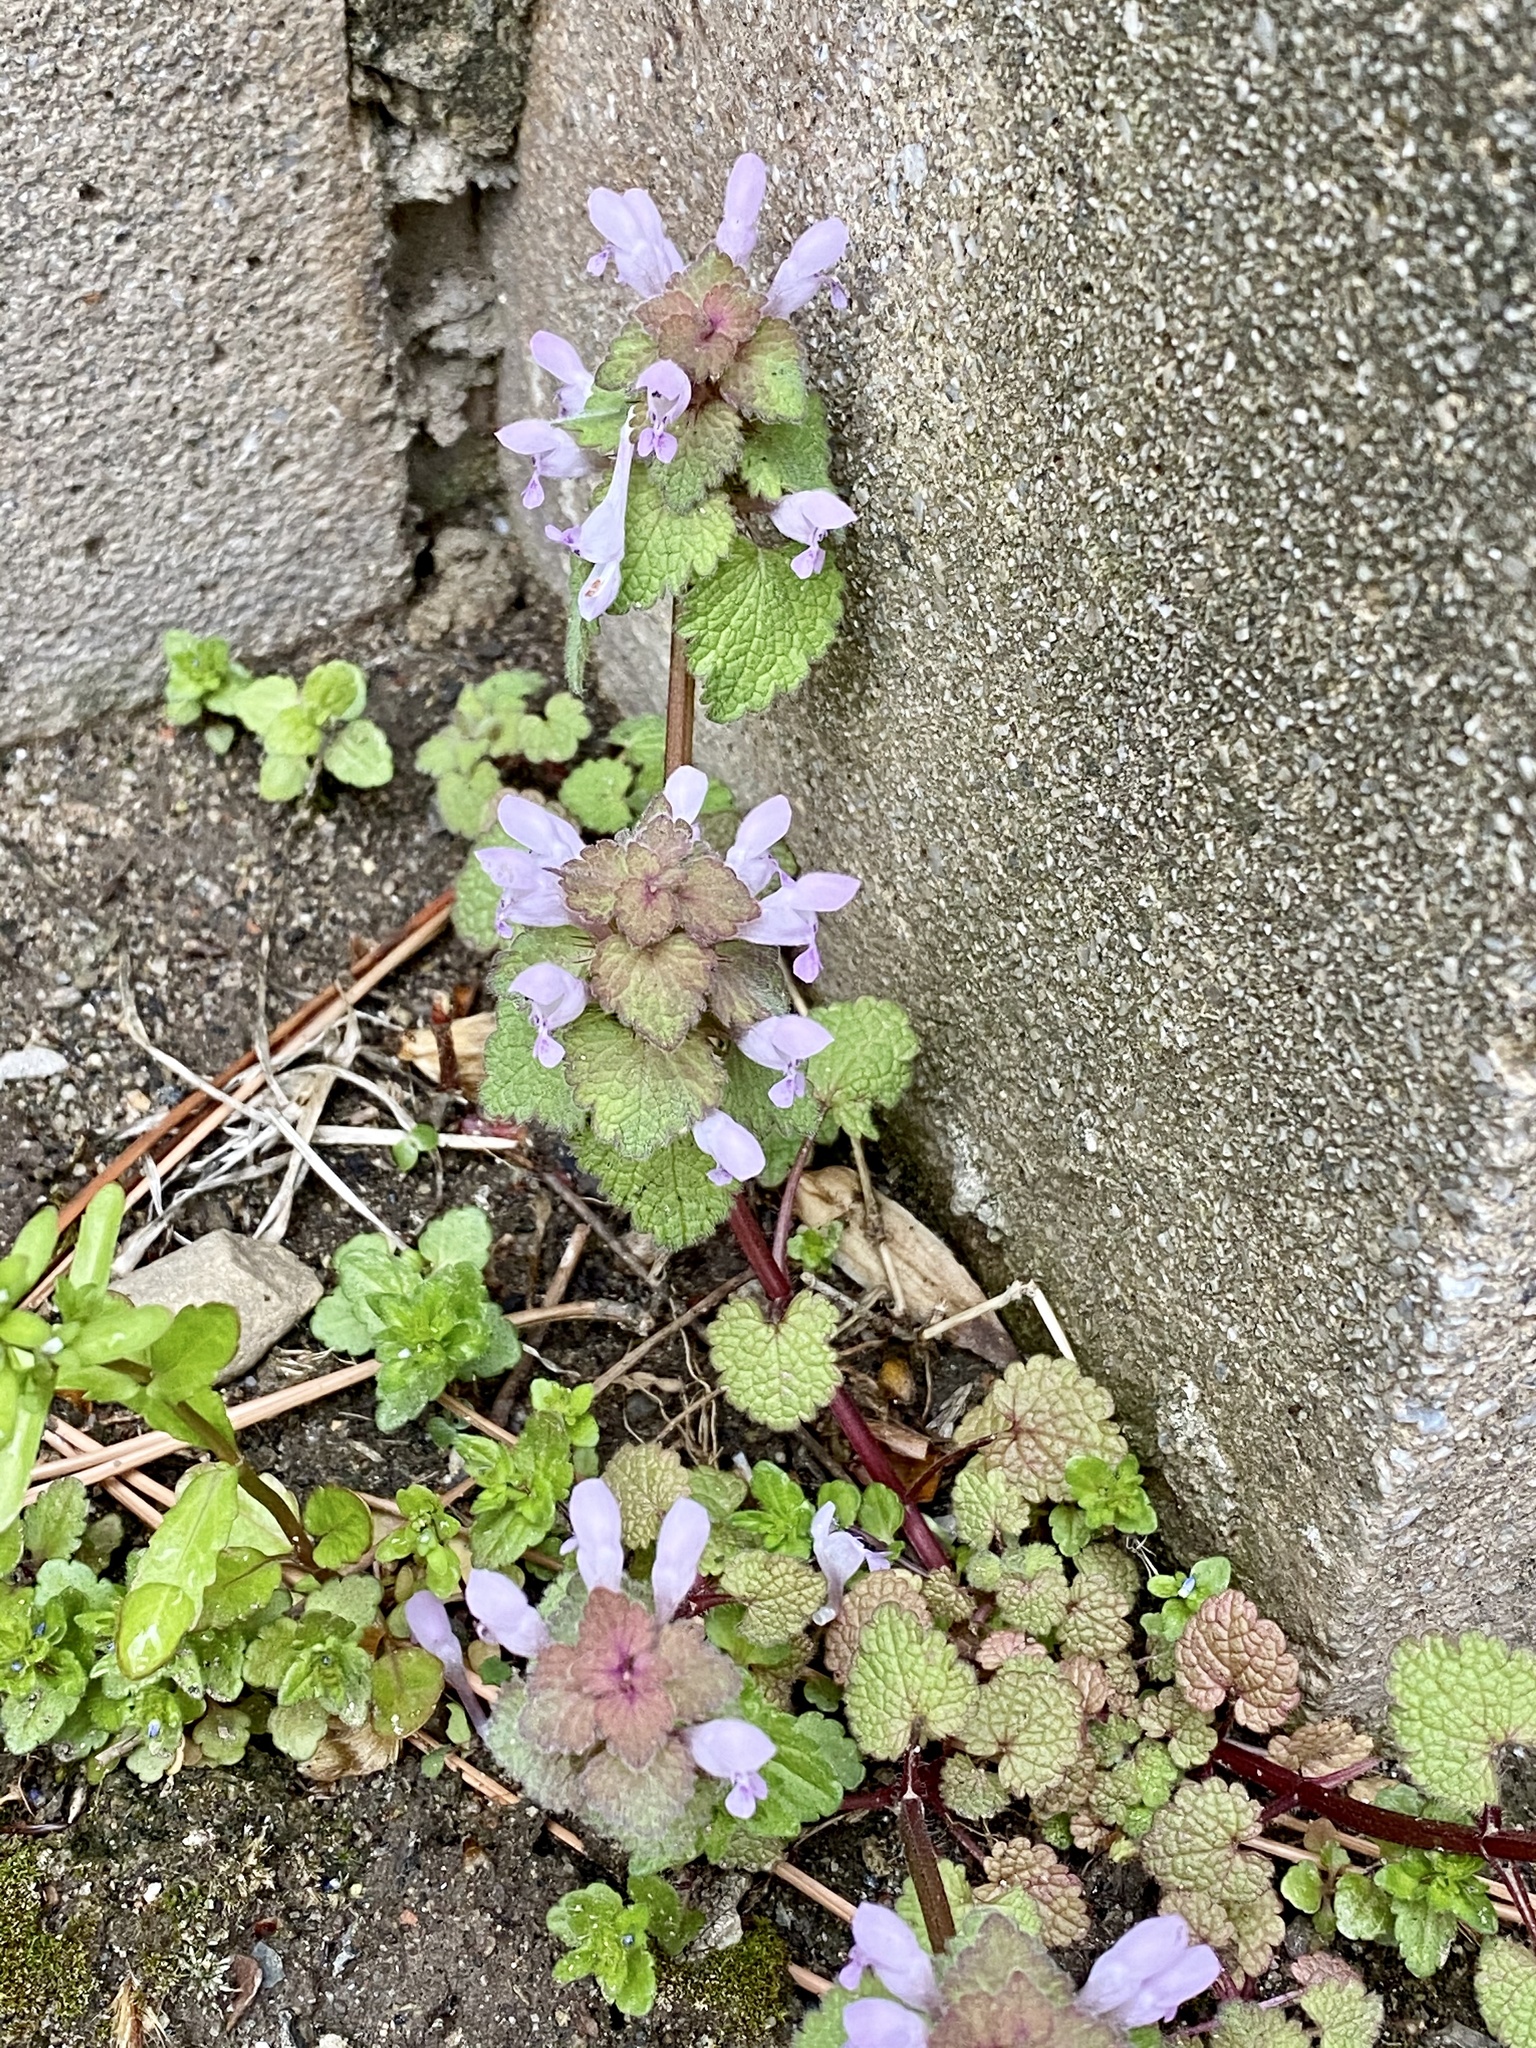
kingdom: Plantae
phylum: Tracheophyta
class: Magnoliopsida
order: Lamiales
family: Lamiaceae
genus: Lamium
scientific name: Lamium purpureum
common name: Red dead-nettle
